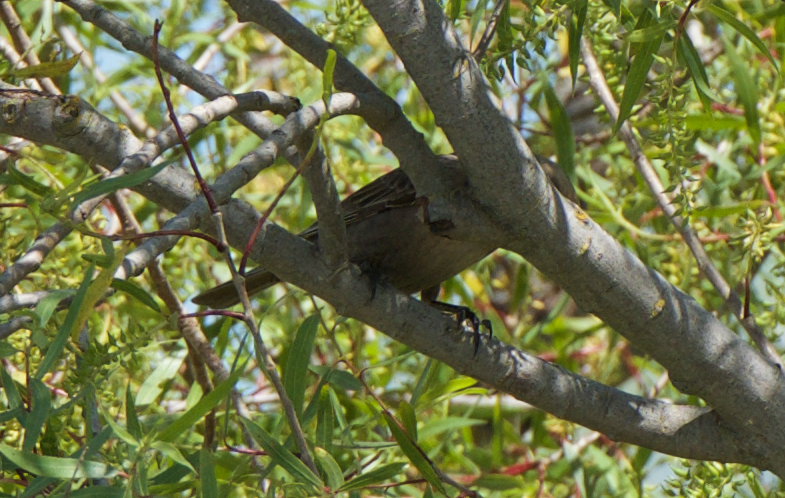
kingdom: Animalia
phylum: Chordata
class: Aves
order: Passeriformes
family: Icteridae
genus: Molothrus
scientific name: Molothrus ater
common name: Brown-headed cowbird
